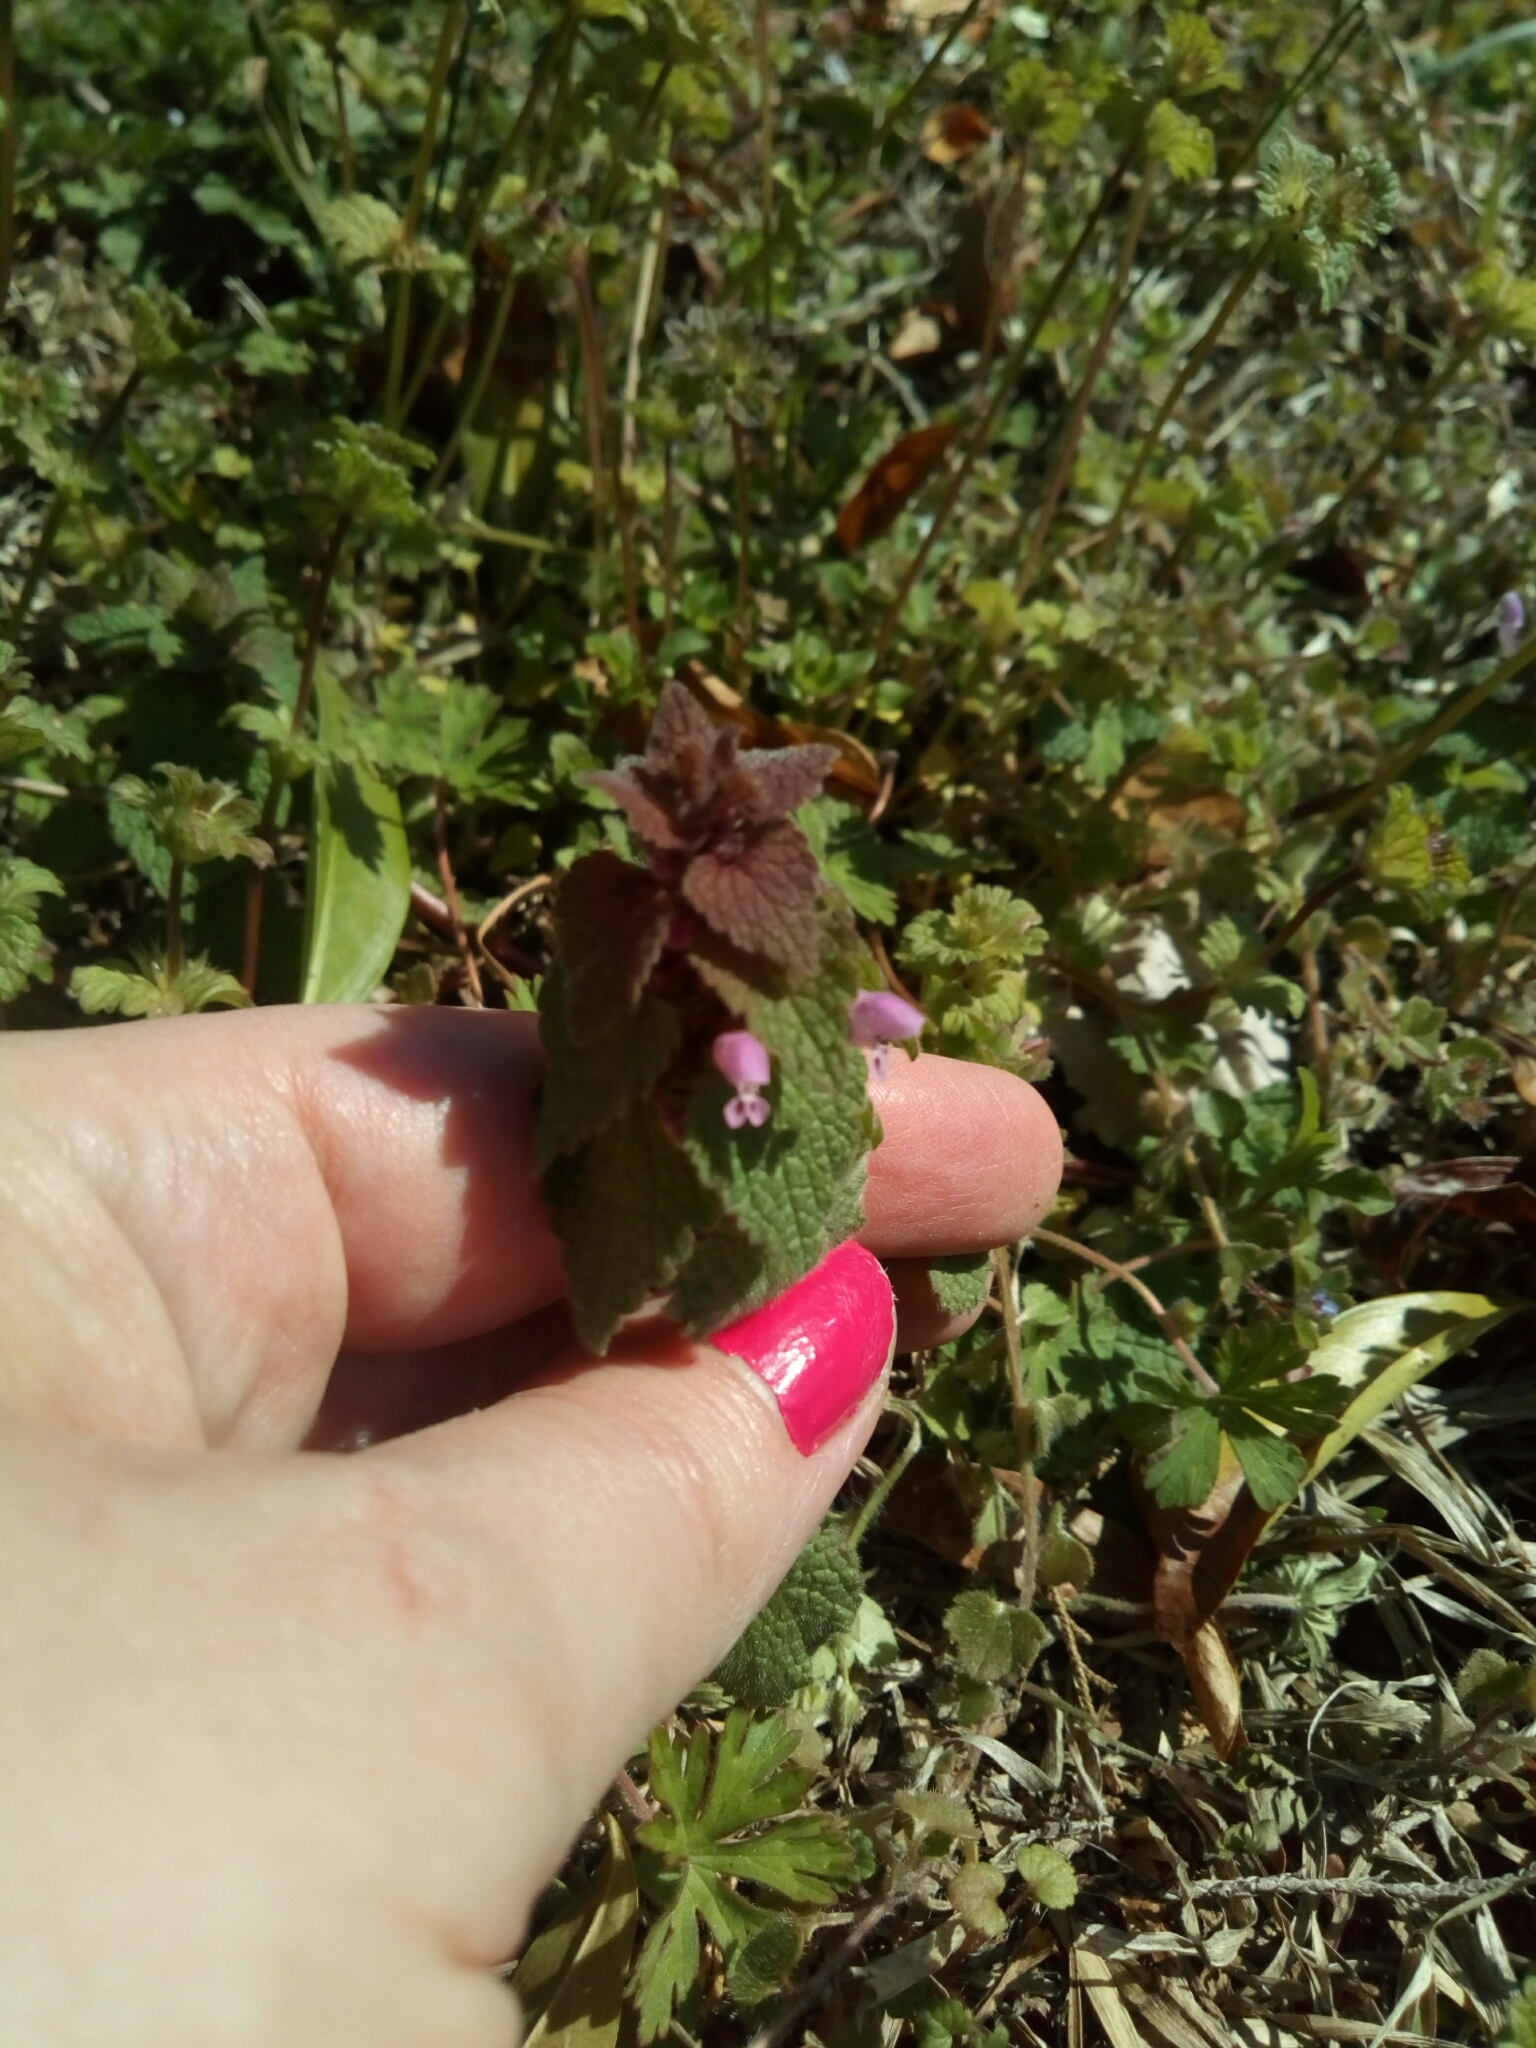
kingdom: Plantae
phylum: Tracheophyta
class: Magnoliopsida
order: Lamiales
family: Lamiaceae
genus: Lamium
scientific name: Lamium purpureum
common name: Red dead-nettle
